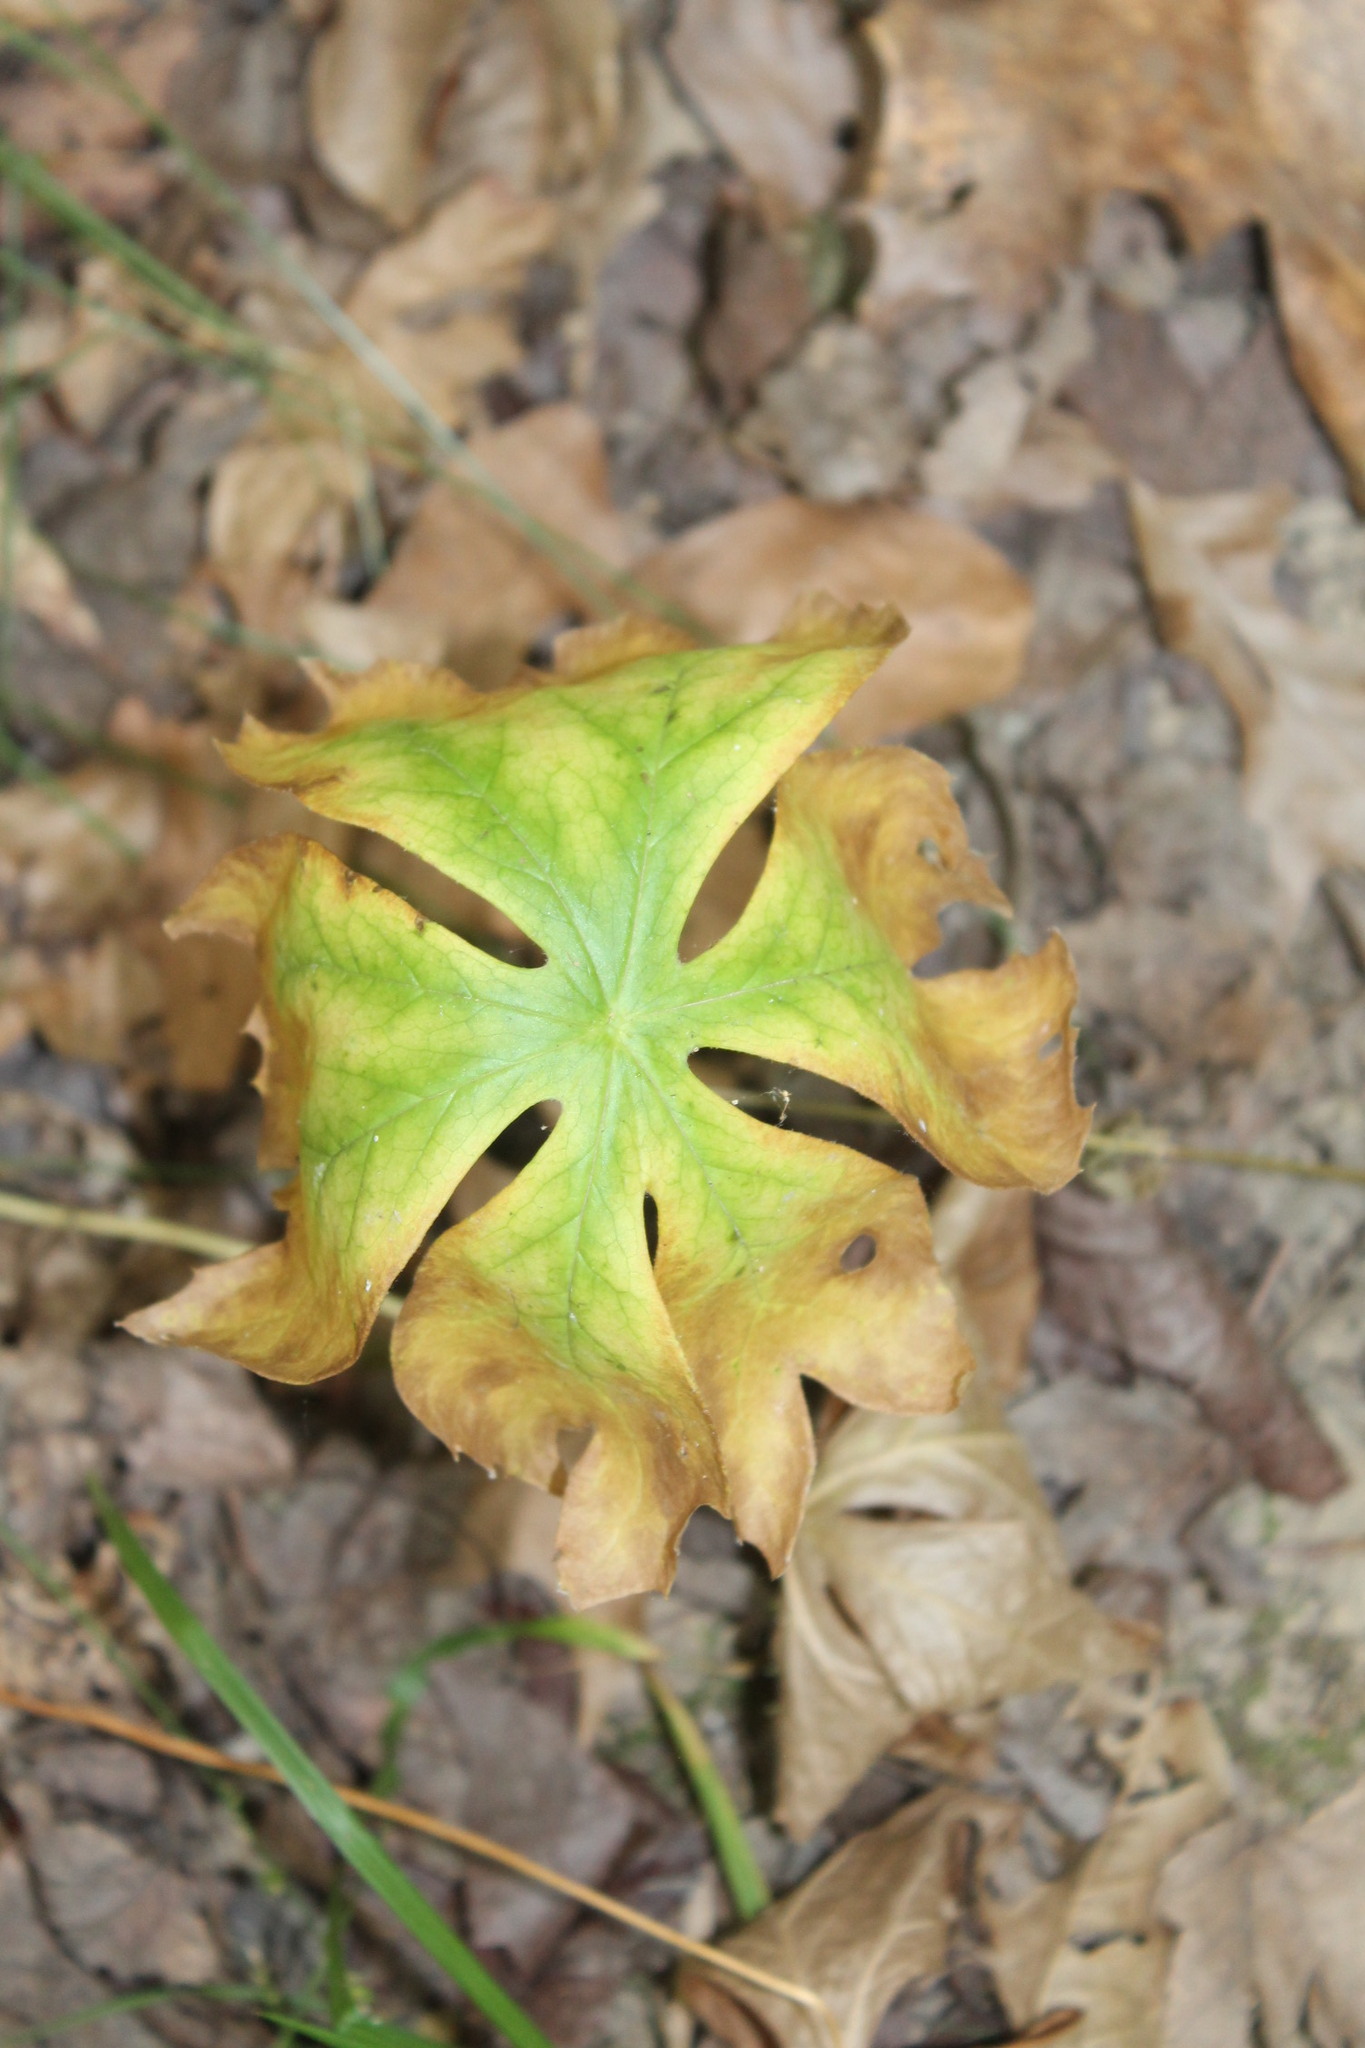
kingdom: Plantae
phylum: Tracheophyta
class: Magnoliopsida
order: Ranunculales
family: Berberidaceae
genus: Podophyllum
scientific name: Podophyllum peltatum
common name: Wild mandrake
